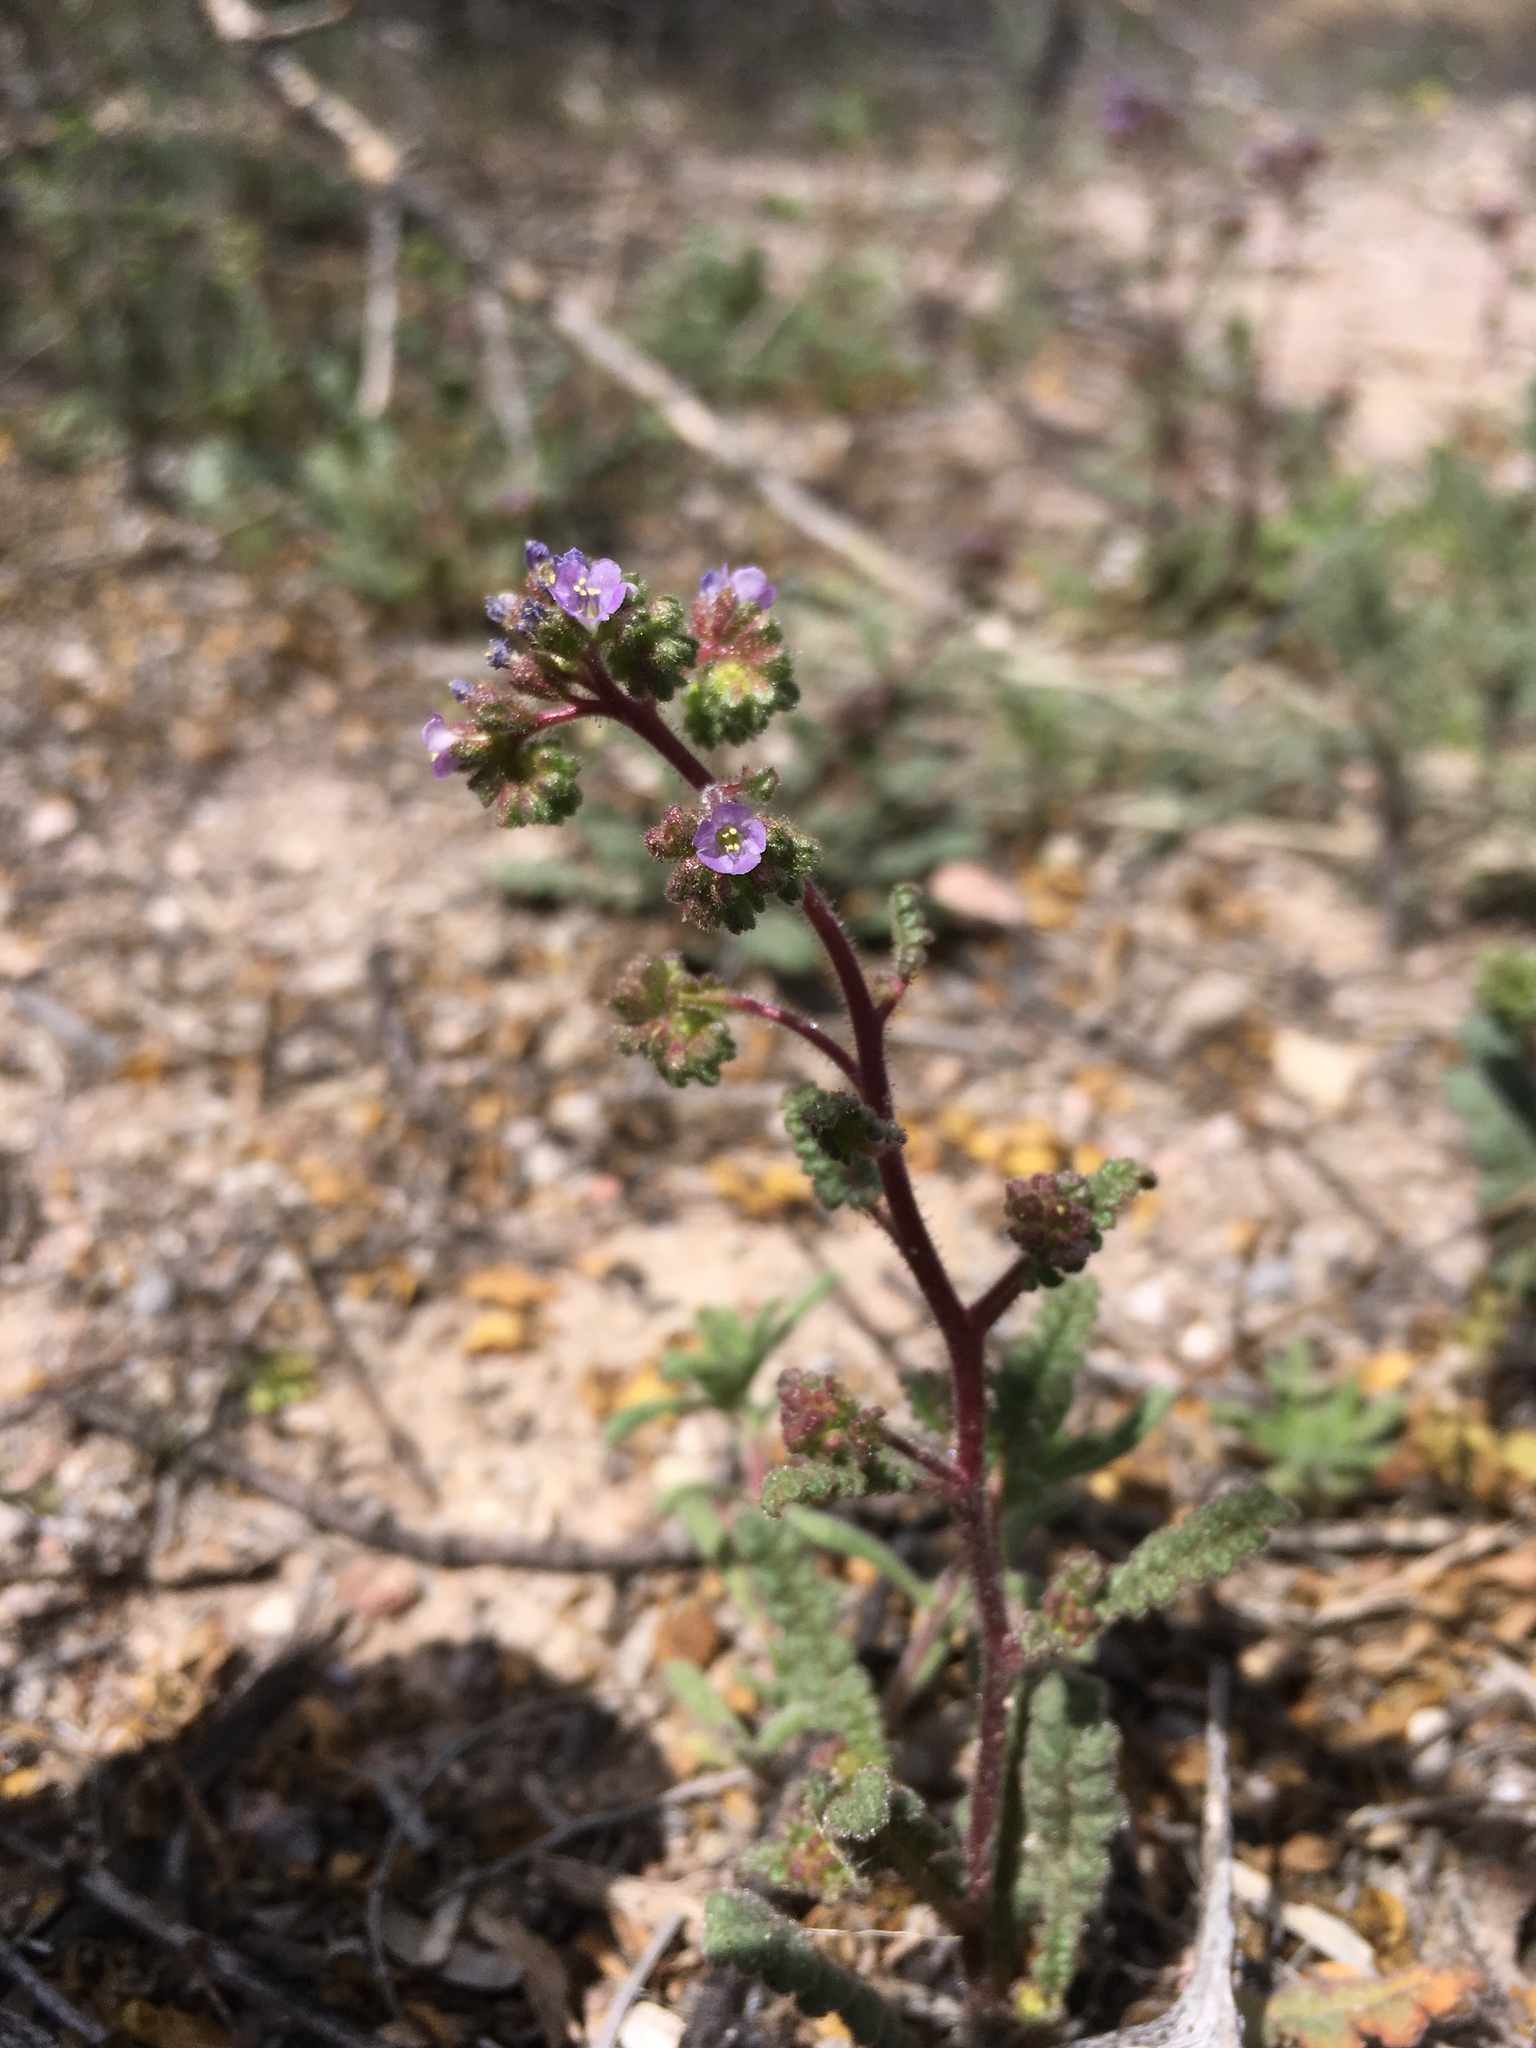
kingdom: Plantae
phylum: Tracheophyta
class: Magnoliopsida
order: Boraginales
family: Hydrophyllaceae
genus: Phacelia
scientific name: Phacelia coerulea
